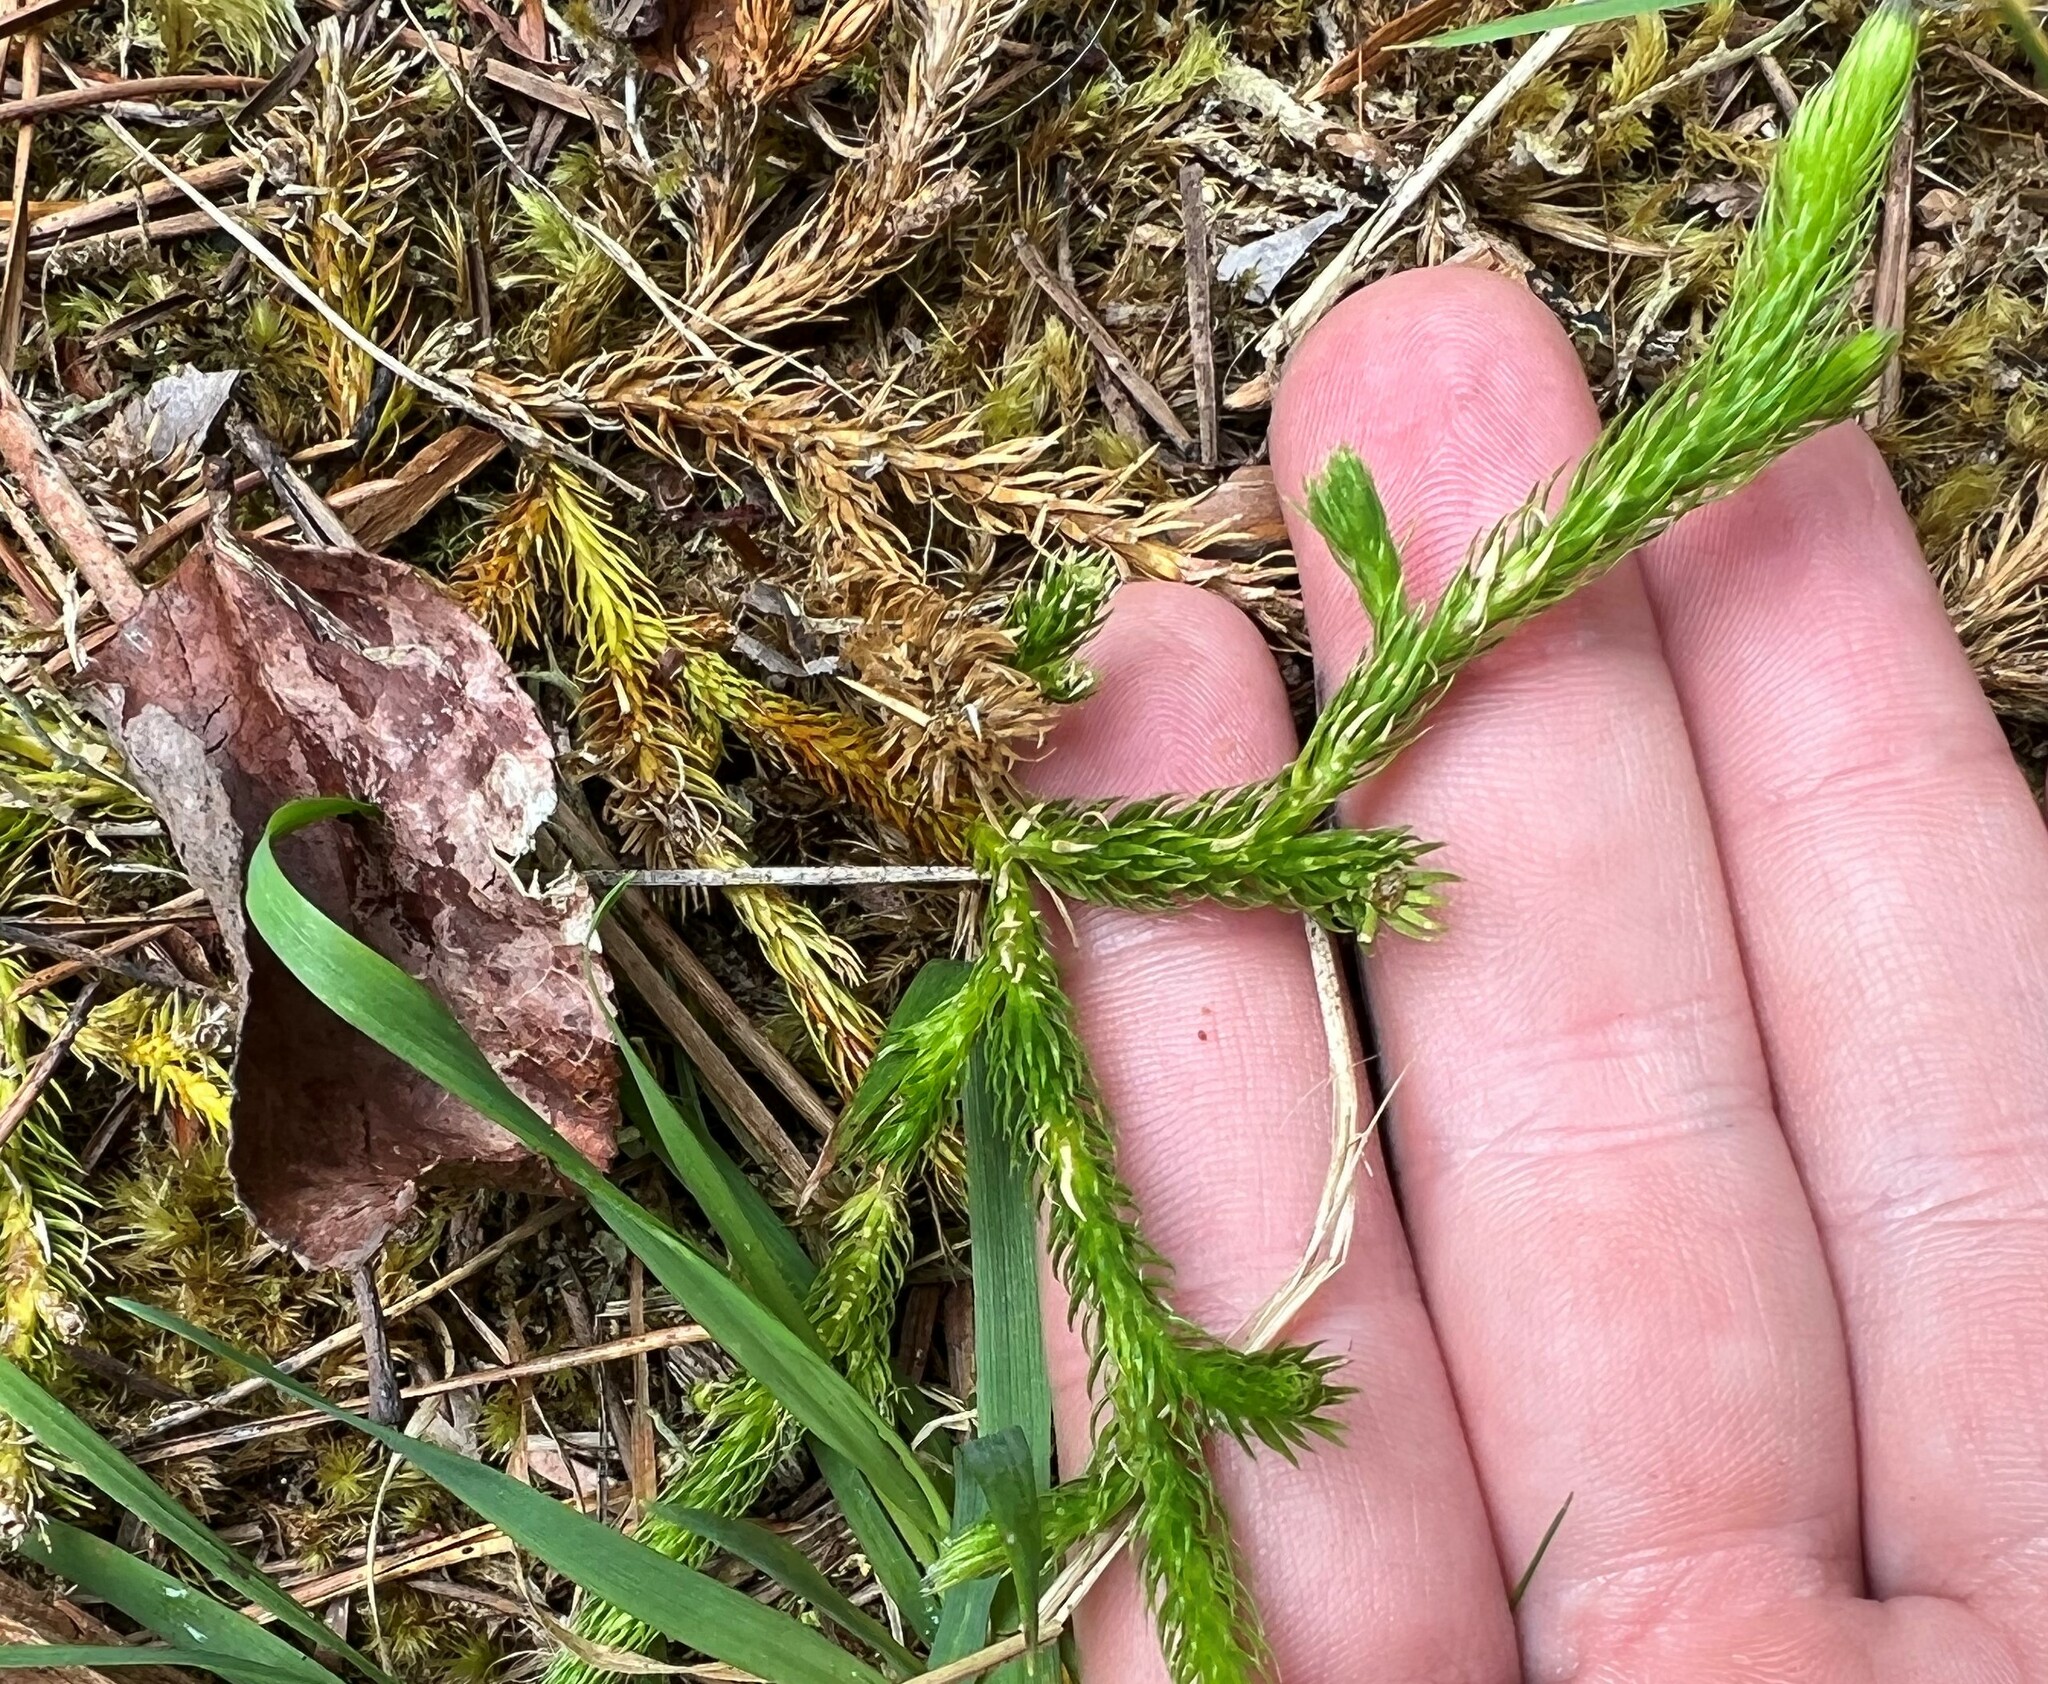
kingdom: Plantae
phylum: Tracheophyta
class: Lycopodiopsida
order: Lycopodiales
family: Lycopodiaceae
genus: Lycopodium
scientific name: Lycopodium clavatum
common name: Stag's-horn clubmoss
